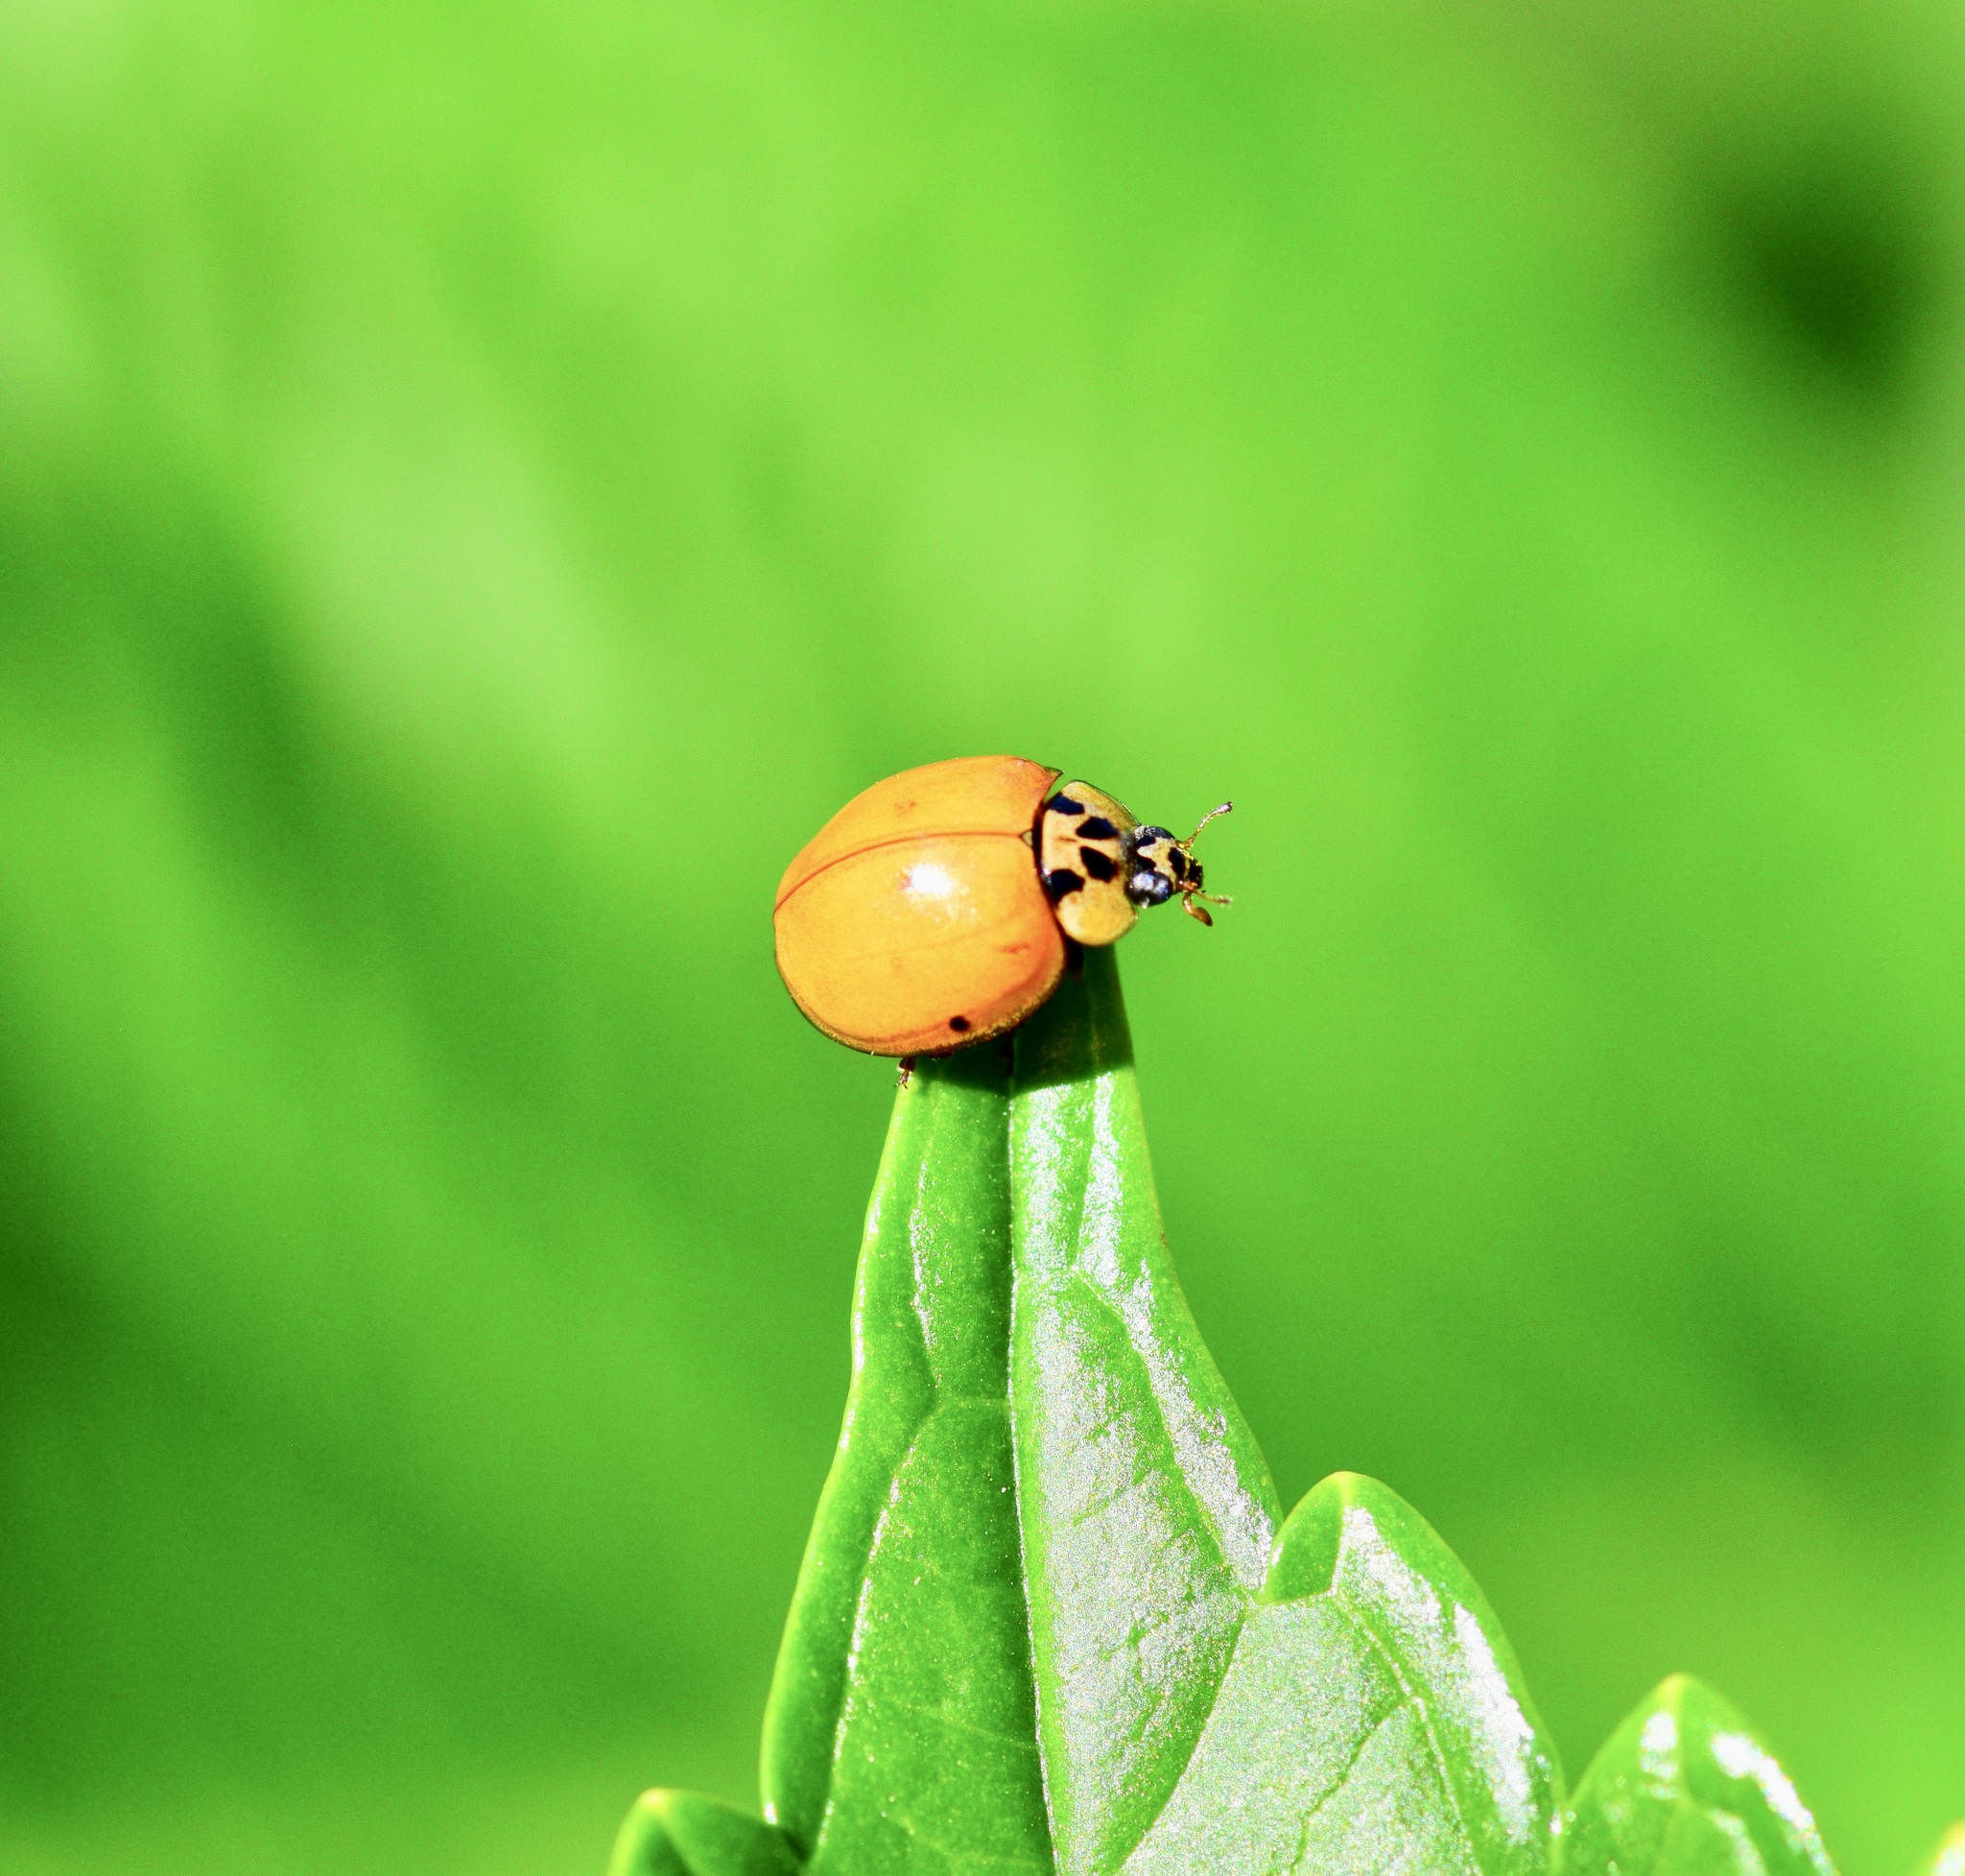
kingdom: Animalia
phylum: Arthropoda
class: Insecta
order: Coleoptera
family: Coccinellidae
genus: Harmonia
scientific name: Harmonia axyridis
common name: Harlequin ladybird
